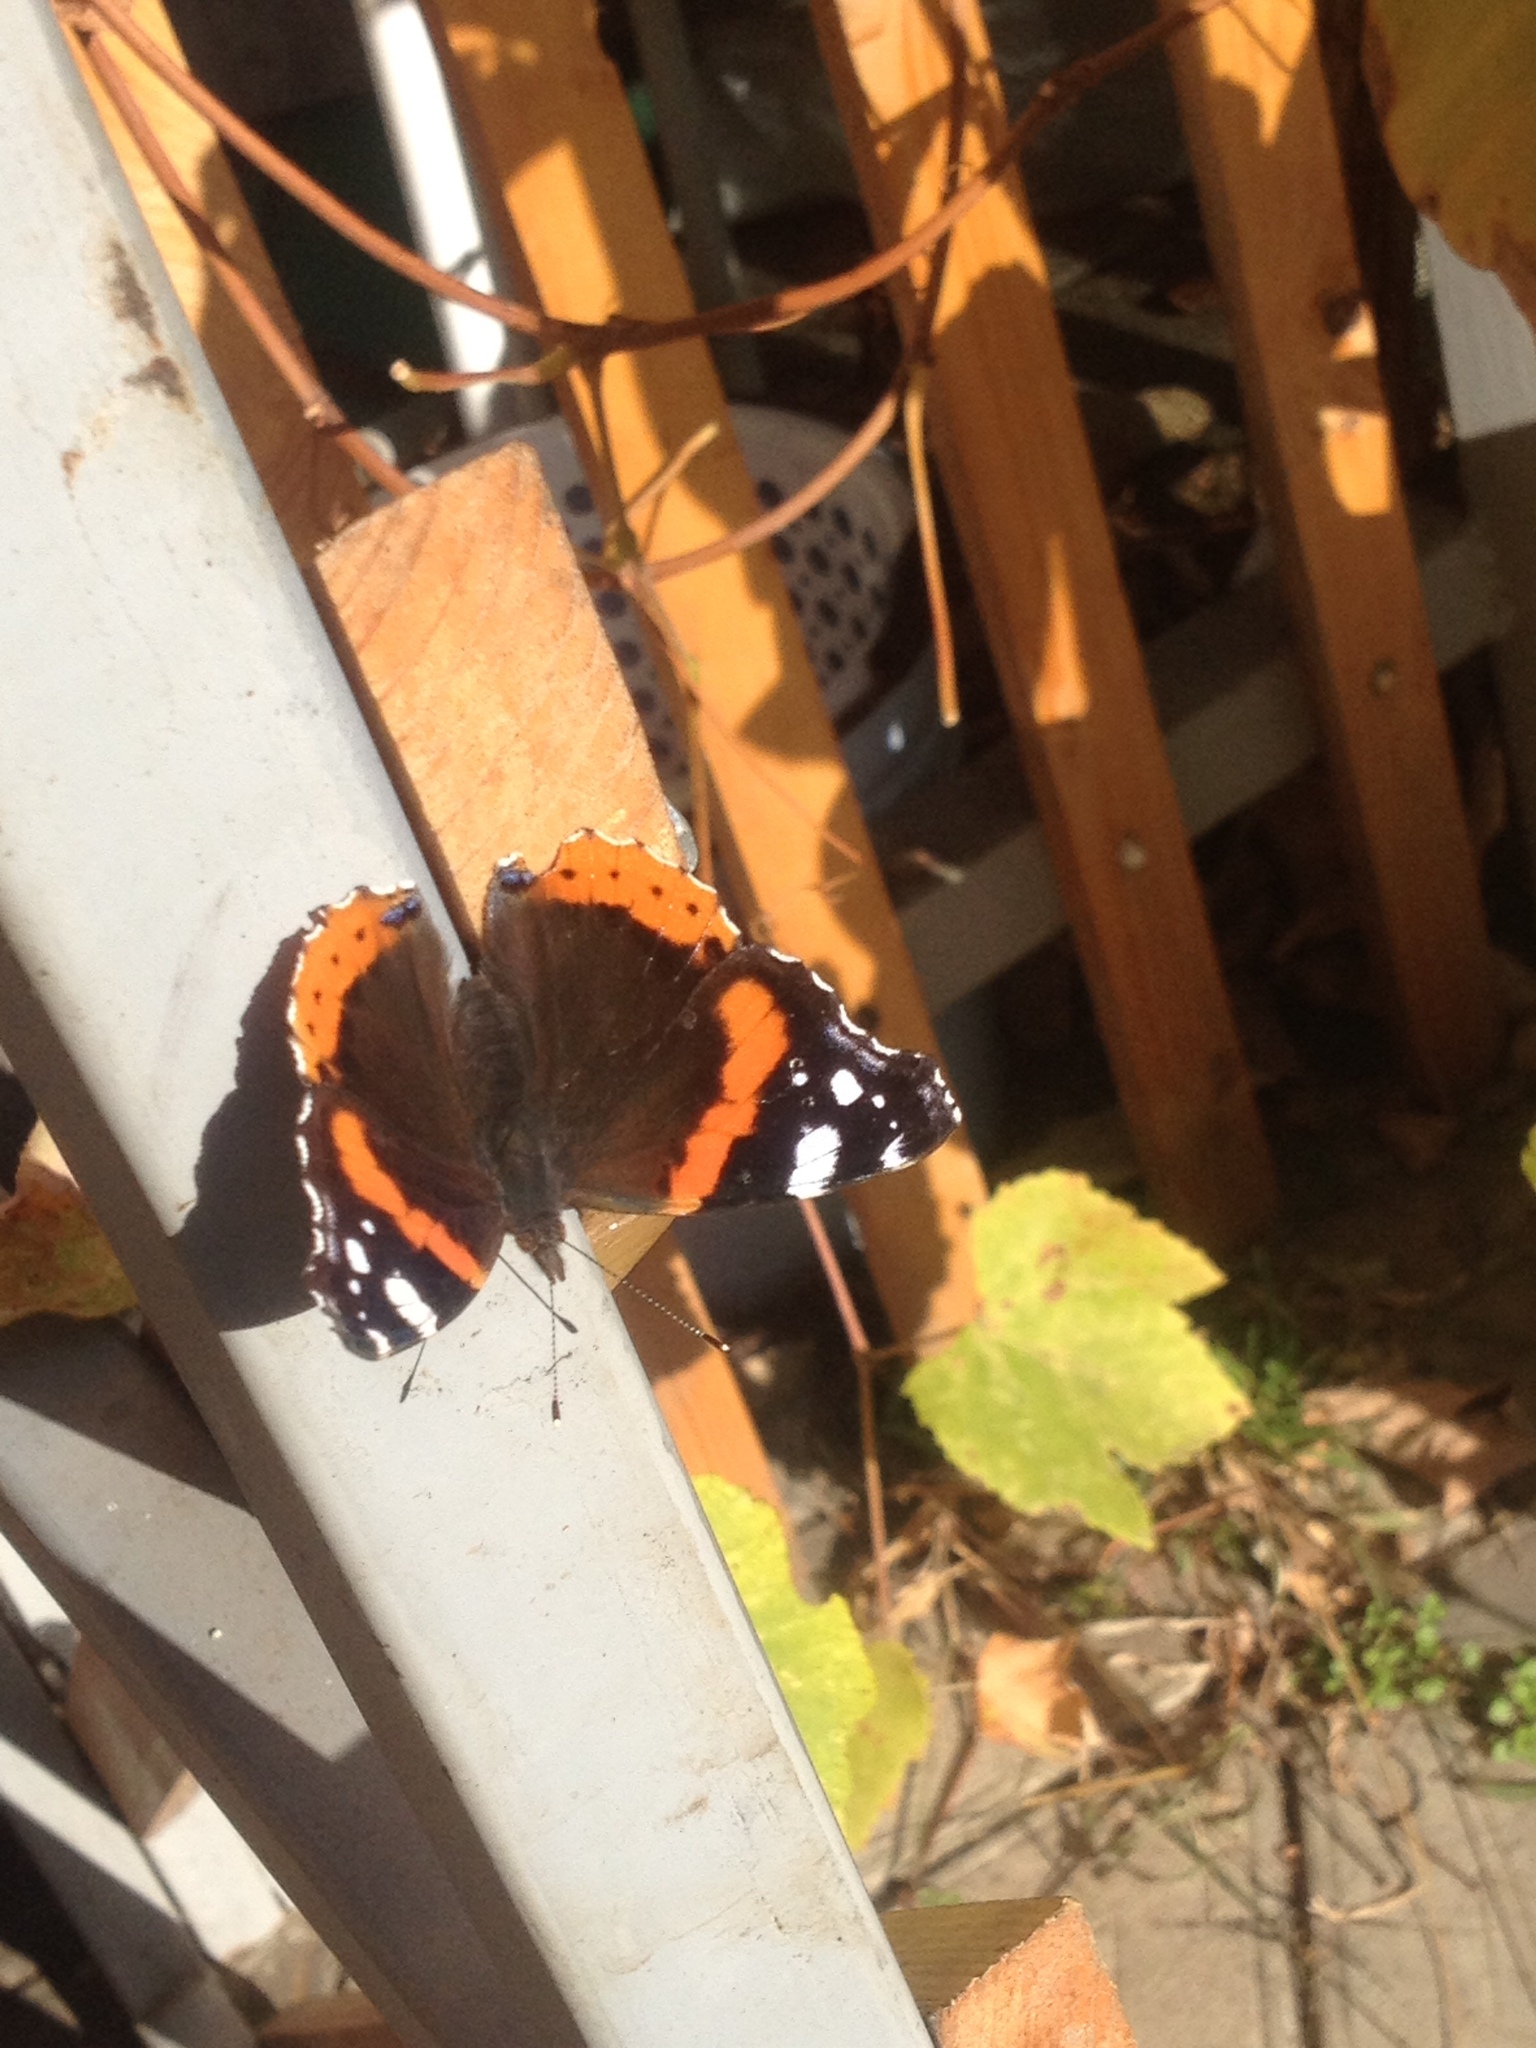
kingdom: Animalia
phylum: Arthropoda
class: Insecta
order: Lepidoptera
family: Nymphalidae
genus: Vanessa
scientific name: Vanessa atalanta
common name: Red admiral
